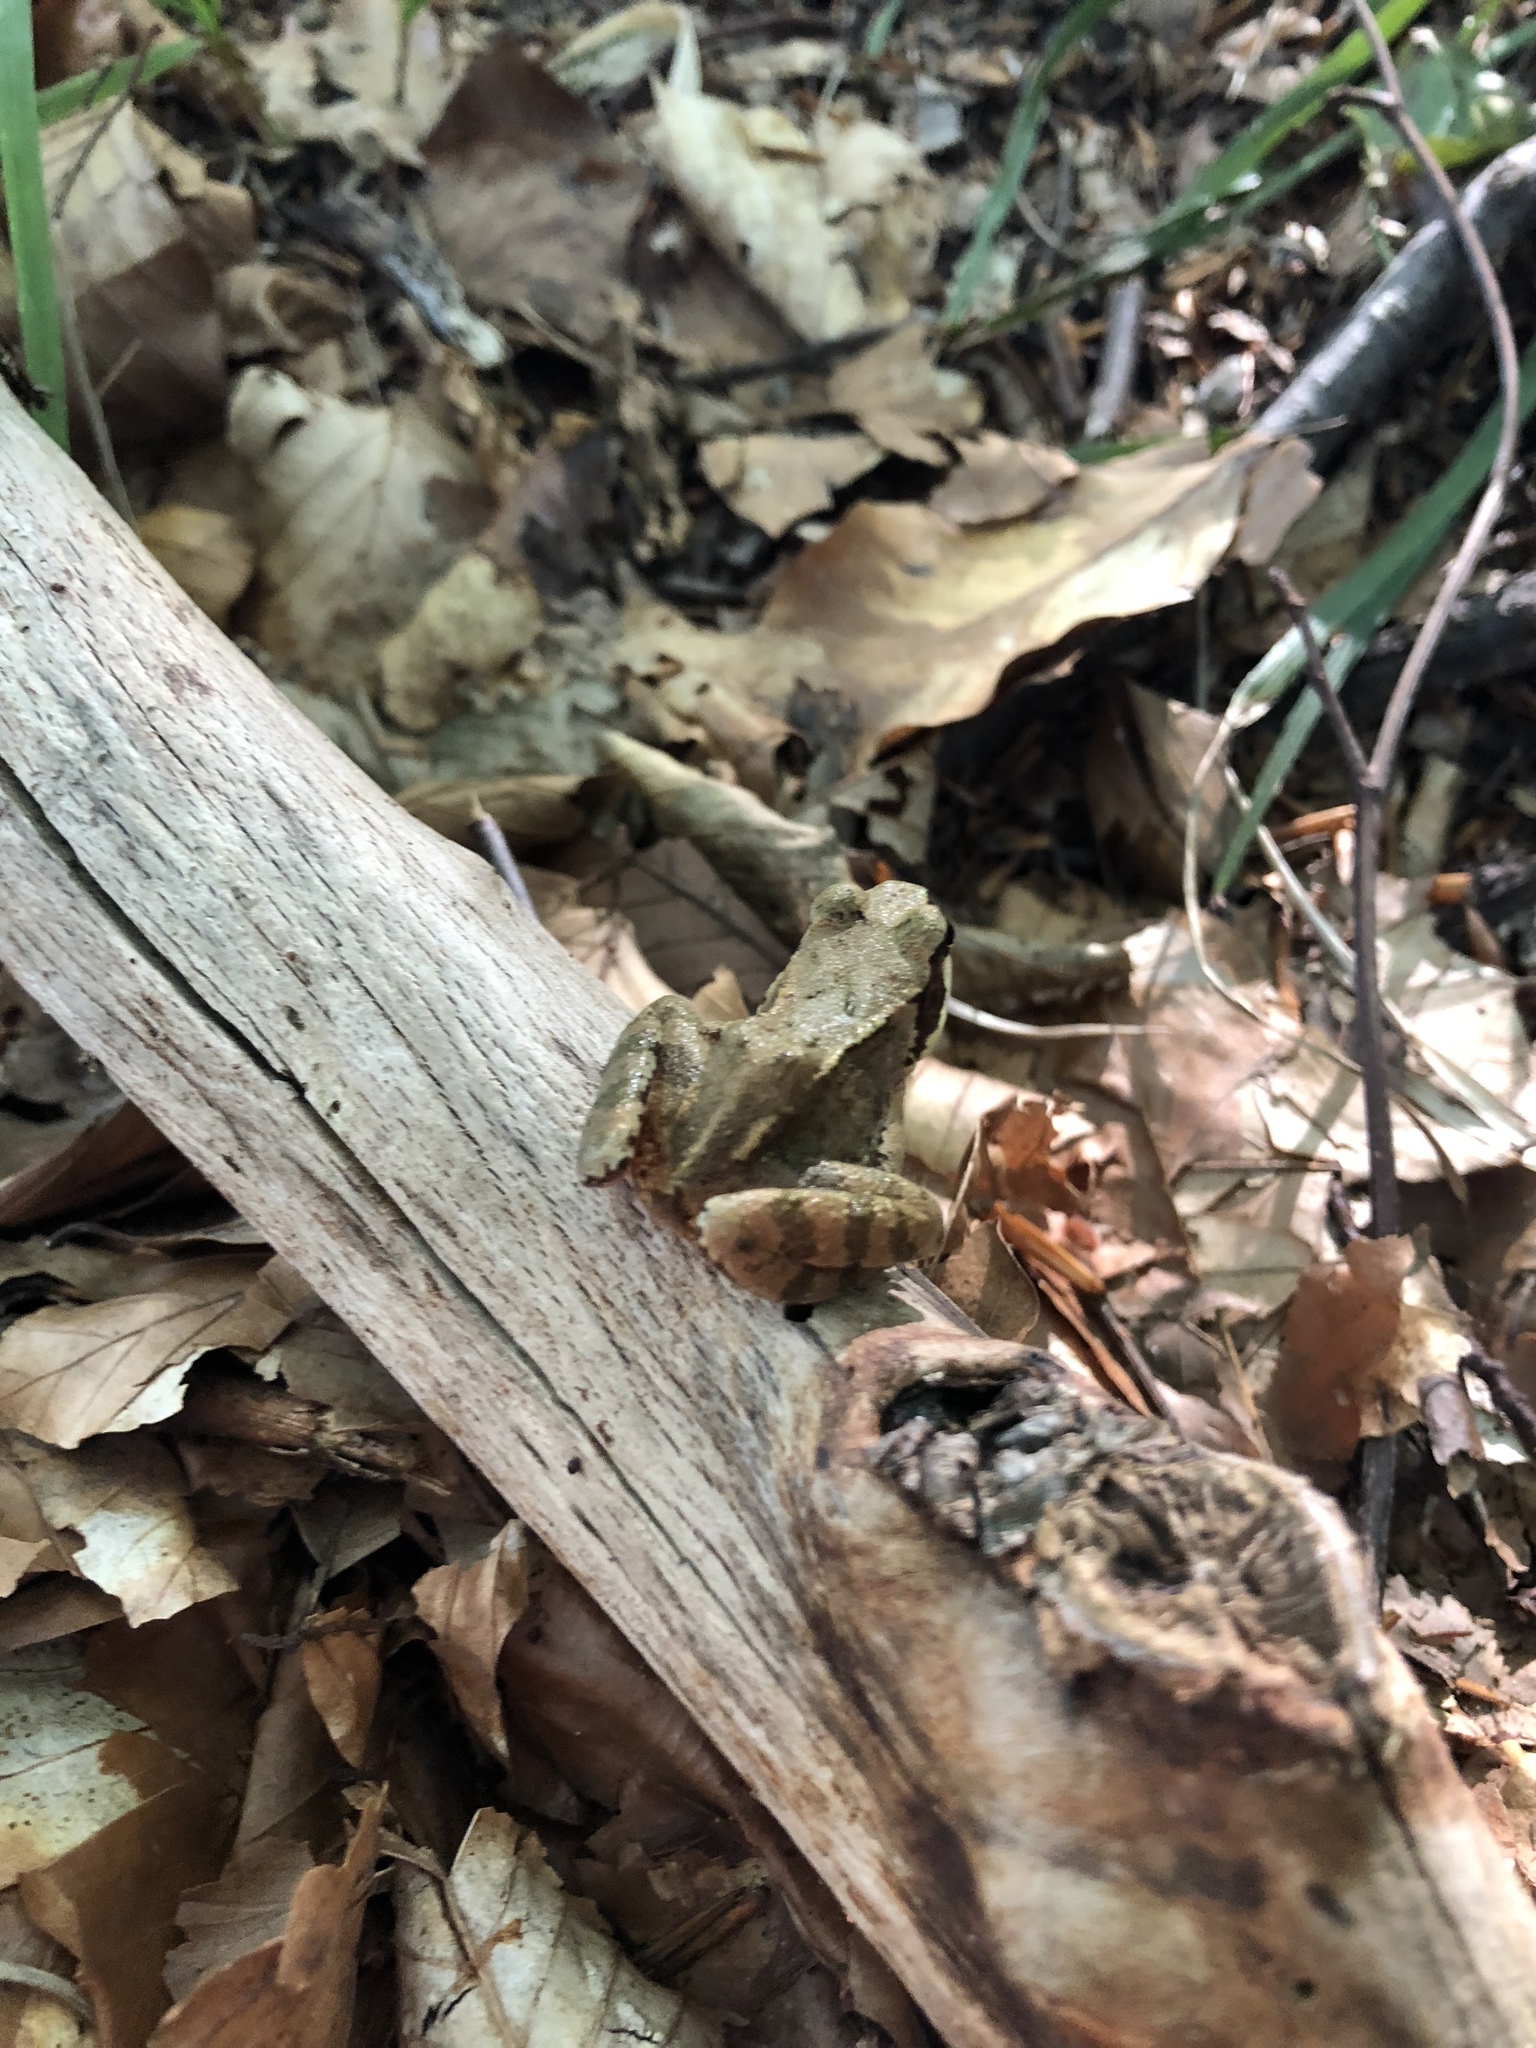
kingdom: Animalia
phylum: Chordata
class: Amphibia
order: Anura
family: Ranidae
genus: Rana
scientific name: Rana dalmatina
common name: Agile frog
